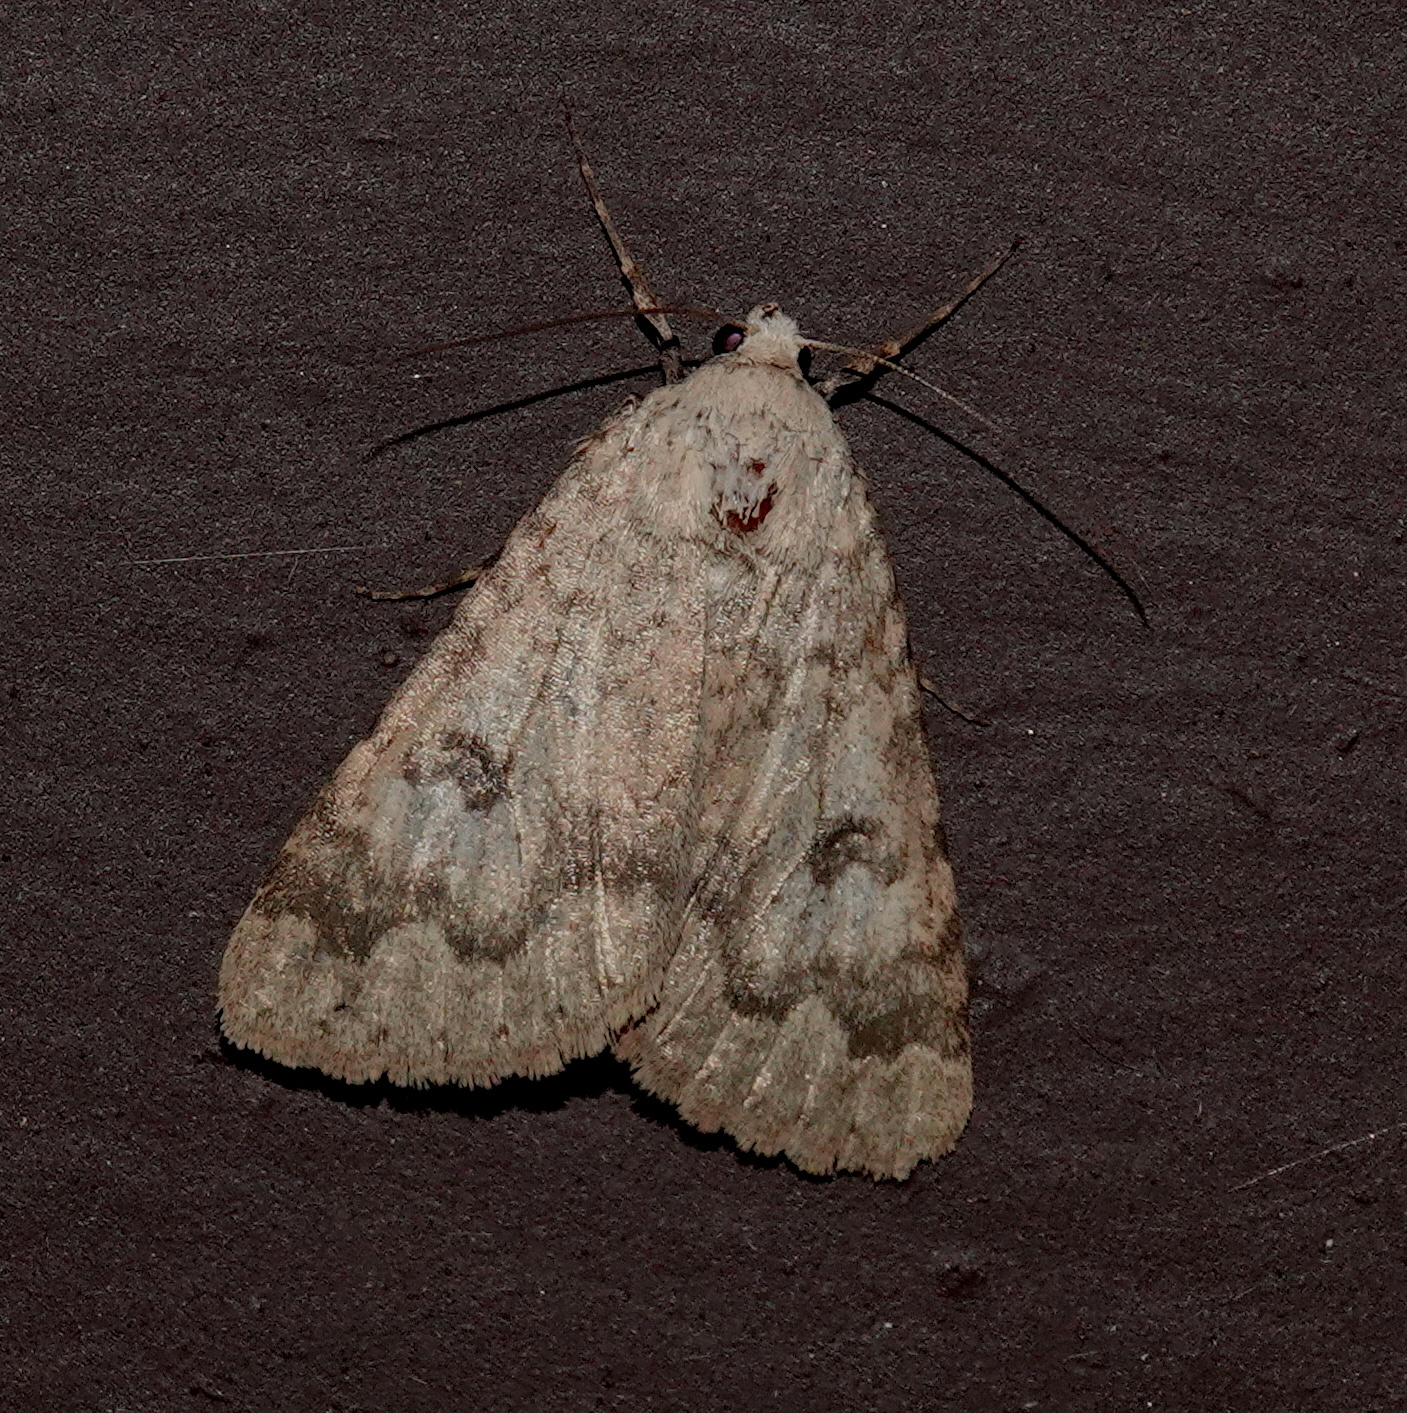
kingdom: Animalia
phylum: Arthropoda
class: Insecta
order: Lepidoptera
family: Erebidae
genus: Drasteria
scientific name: Drasteria inepta
